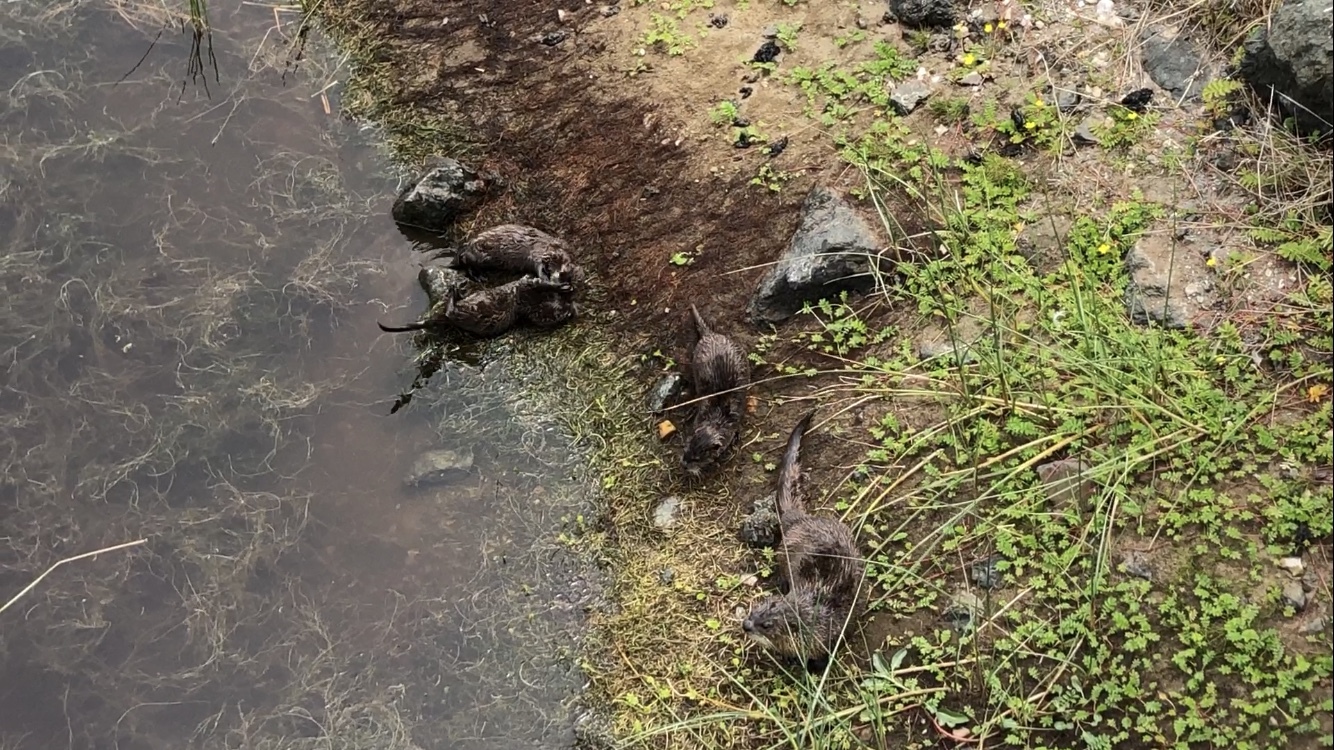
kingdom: Animalia
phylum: Chordata
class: Mammalia
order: Carnivora
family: Mustelidae
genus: Lontra
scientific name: Lontra canadensis
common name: North american river otter
